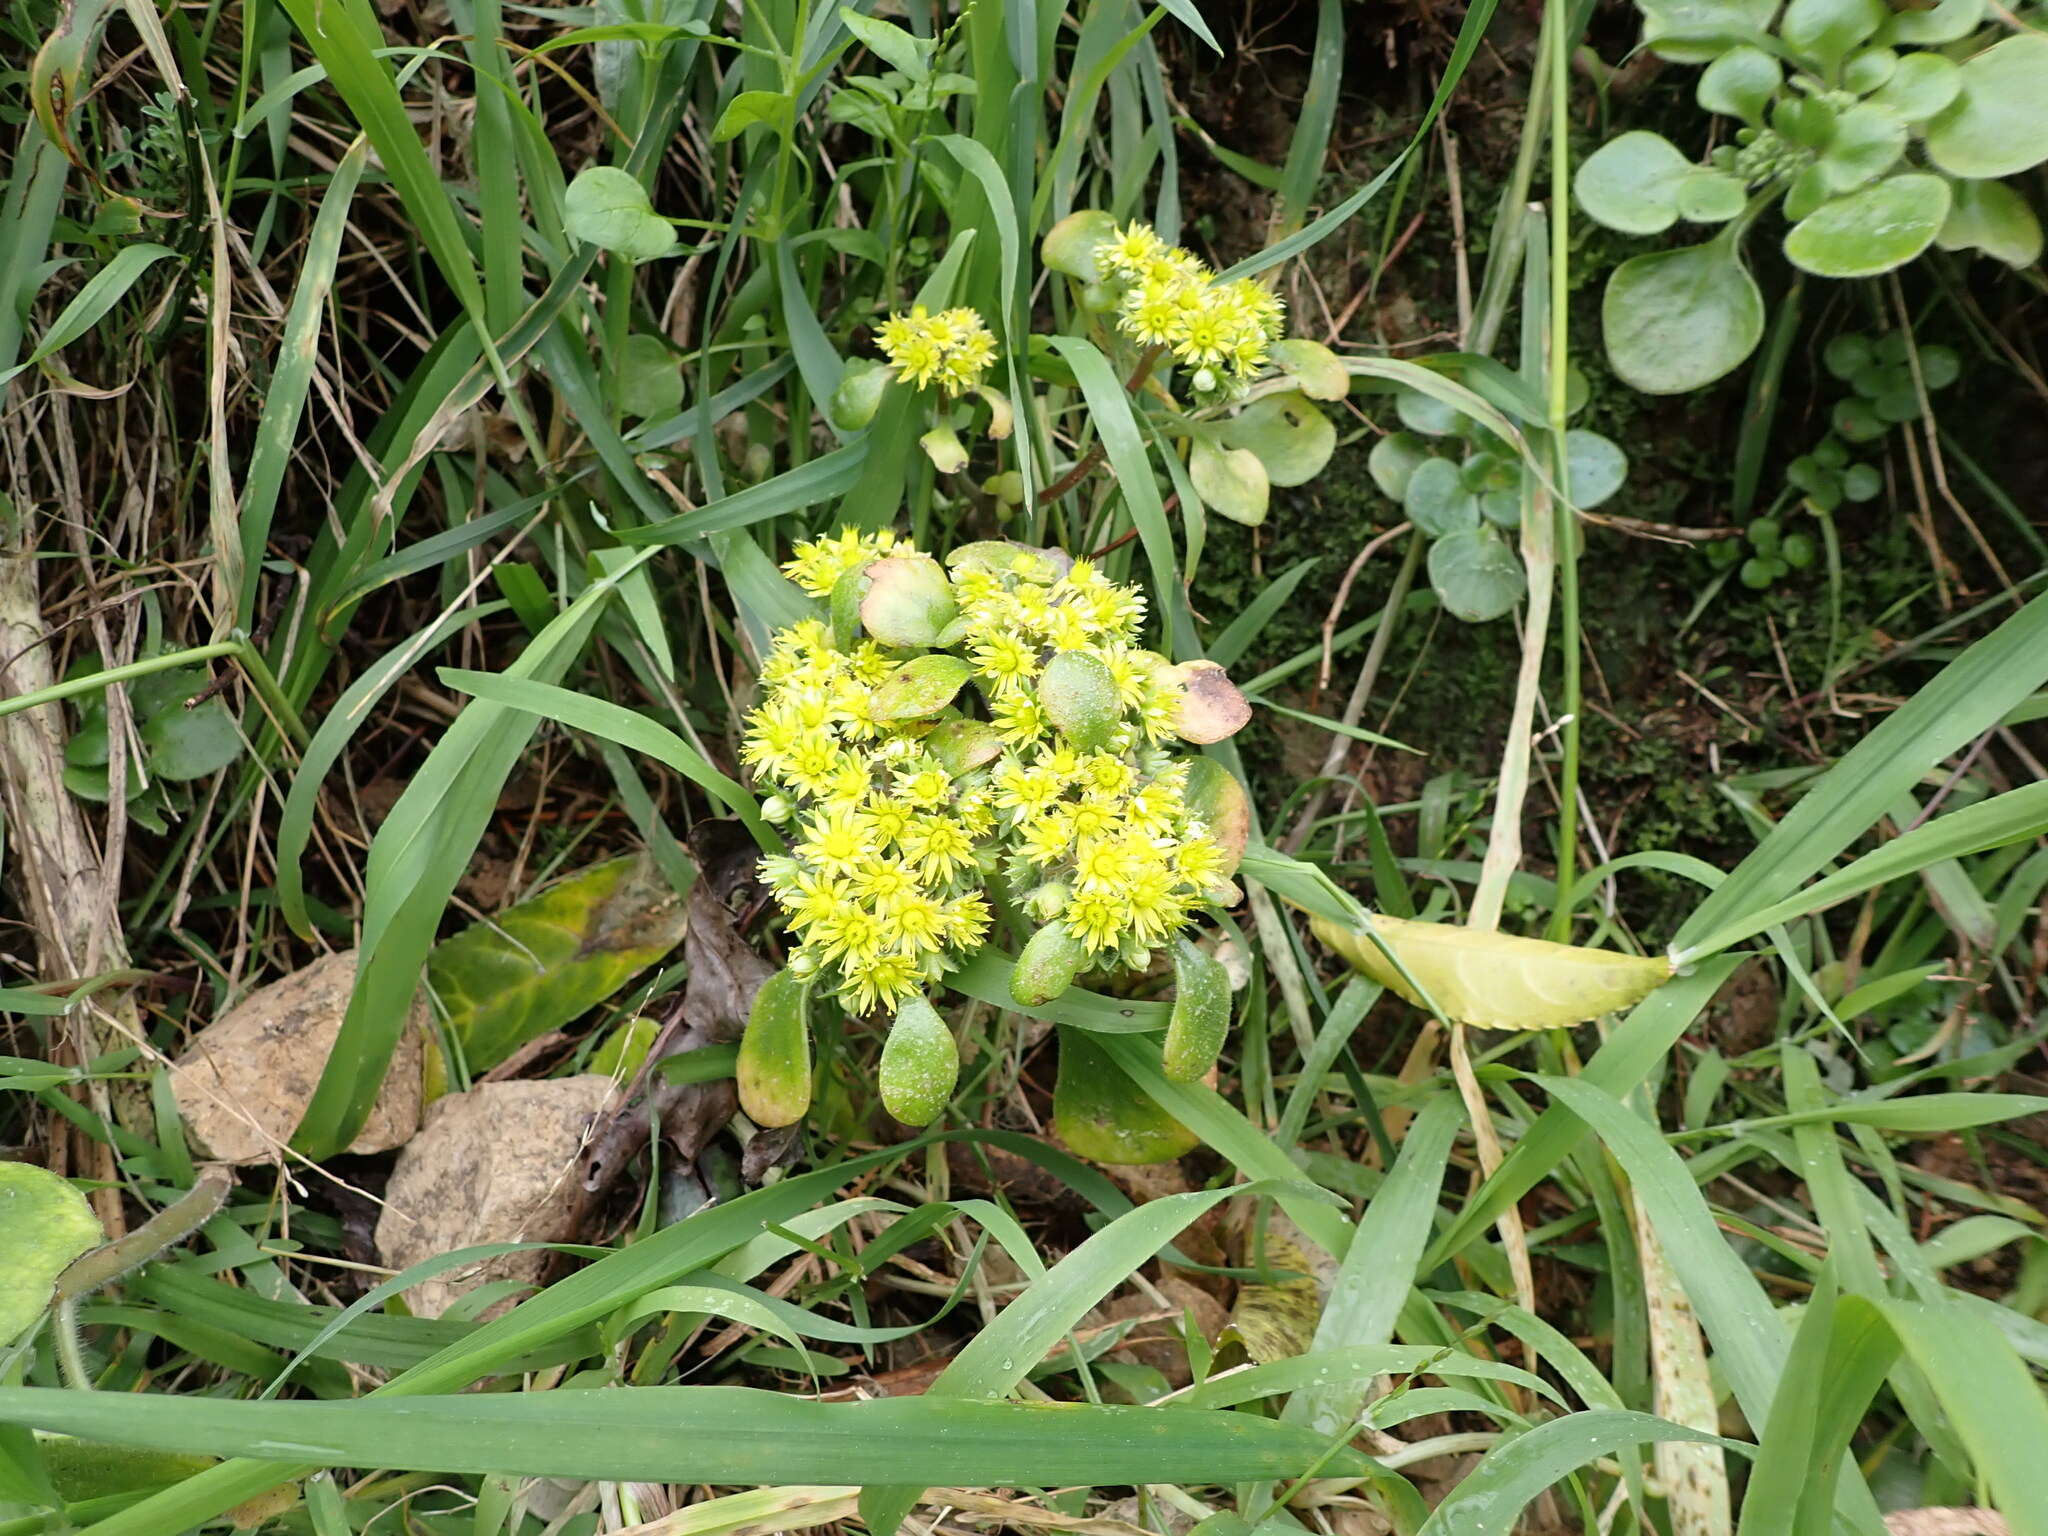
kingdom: Plantae
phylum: Tracheophyta
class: Magnoliopsida
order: Saxifragales
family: Crassulaceae
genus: Aichryson
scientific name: Aichryson laxum
